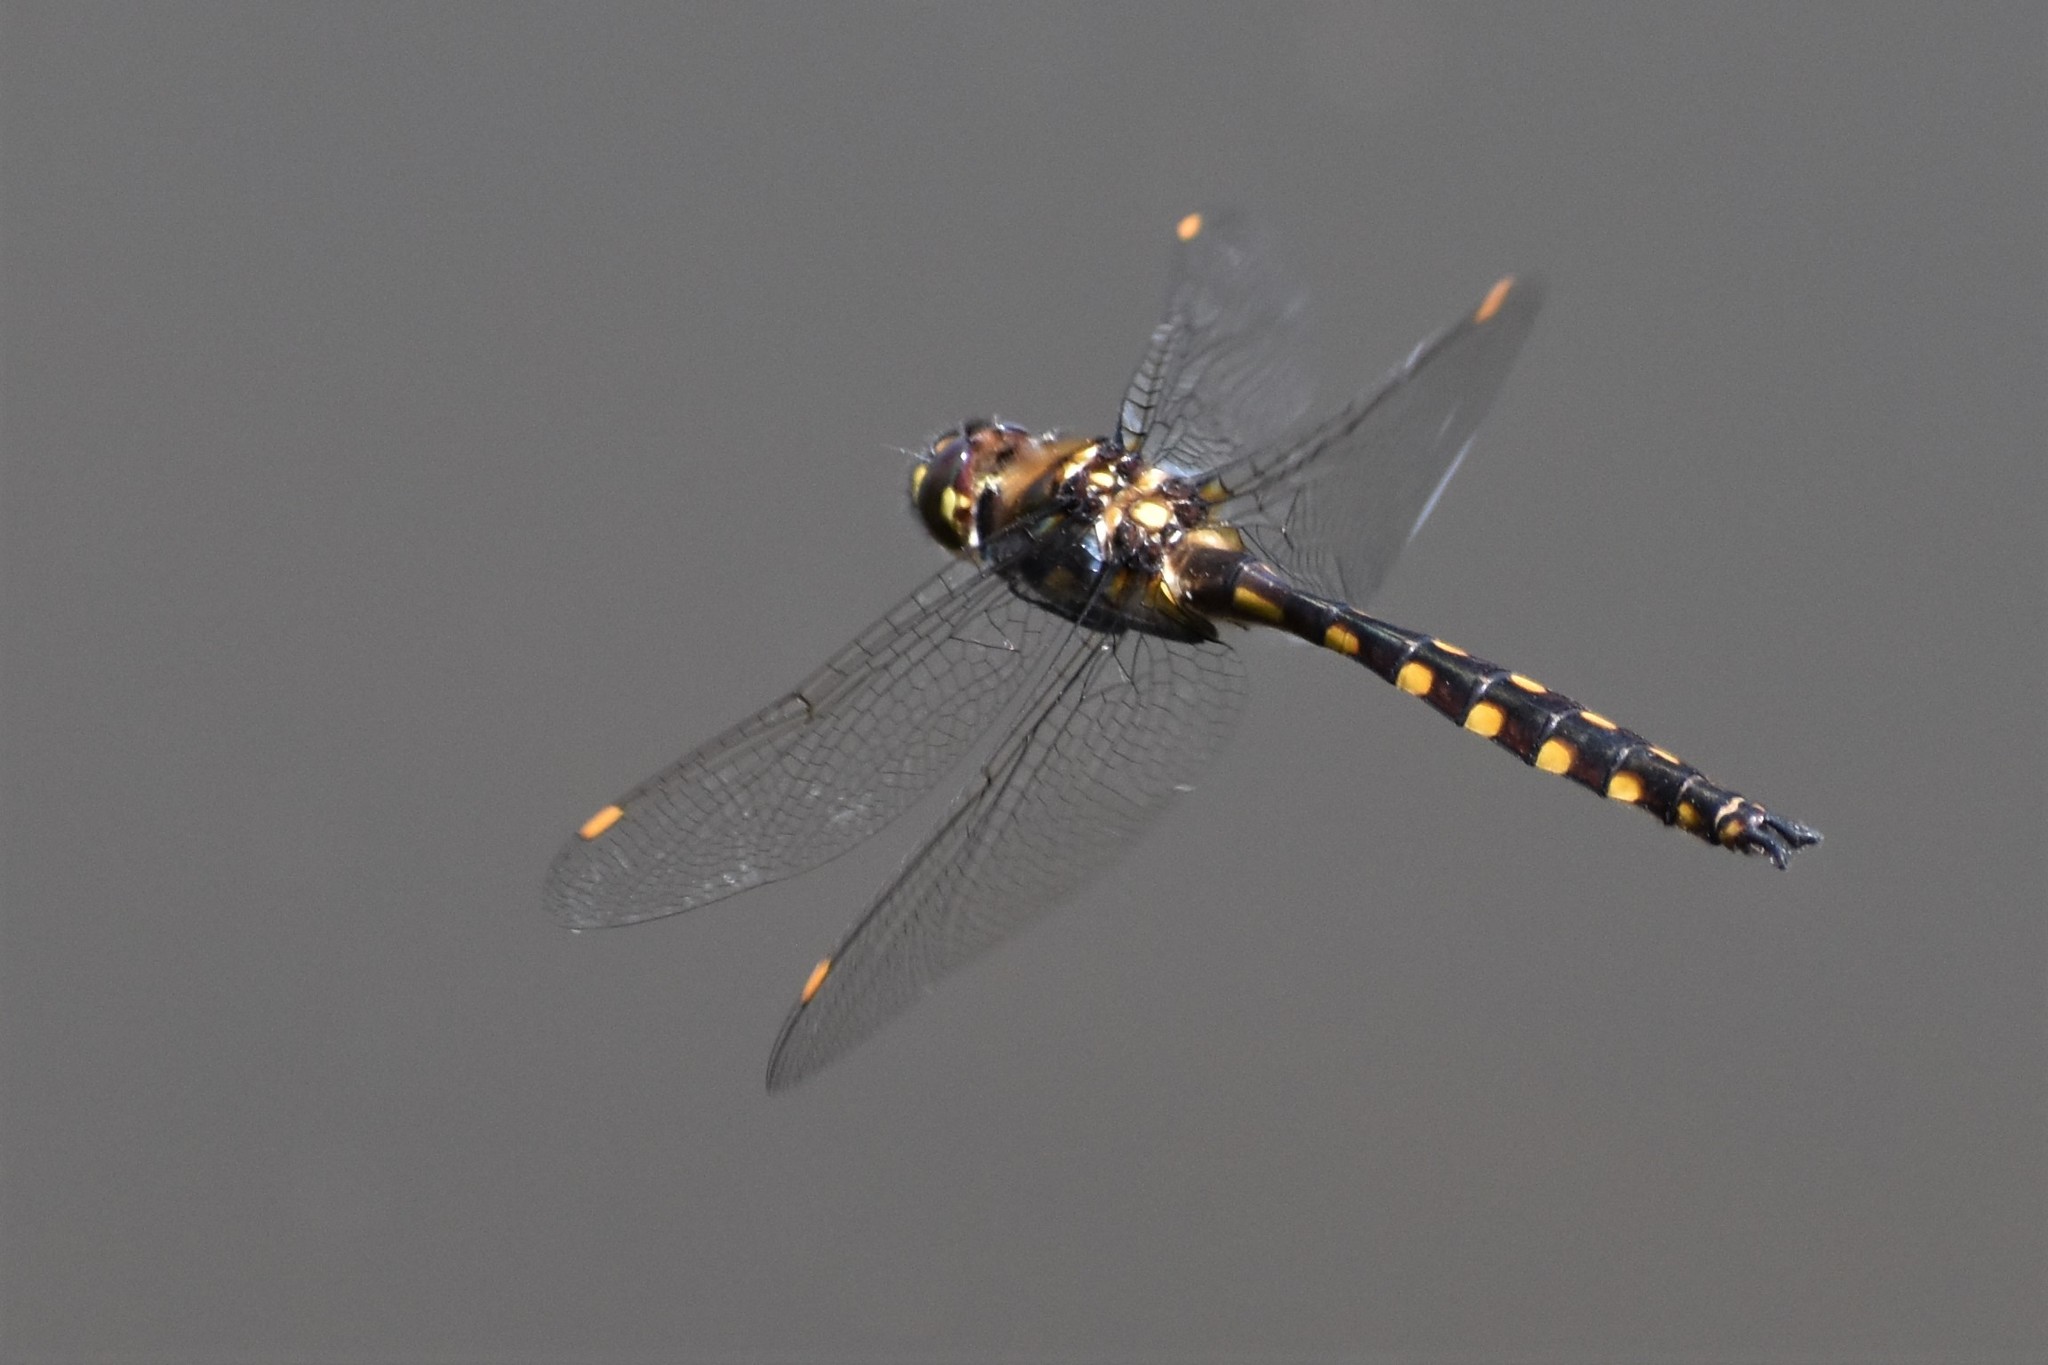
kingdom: Animalia
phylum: Arthropoda
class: Insecta
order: Odonata
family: Corduliidae
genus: Procordulia
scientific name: Procordulia grayi
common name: Yellow spotted dragonfly
